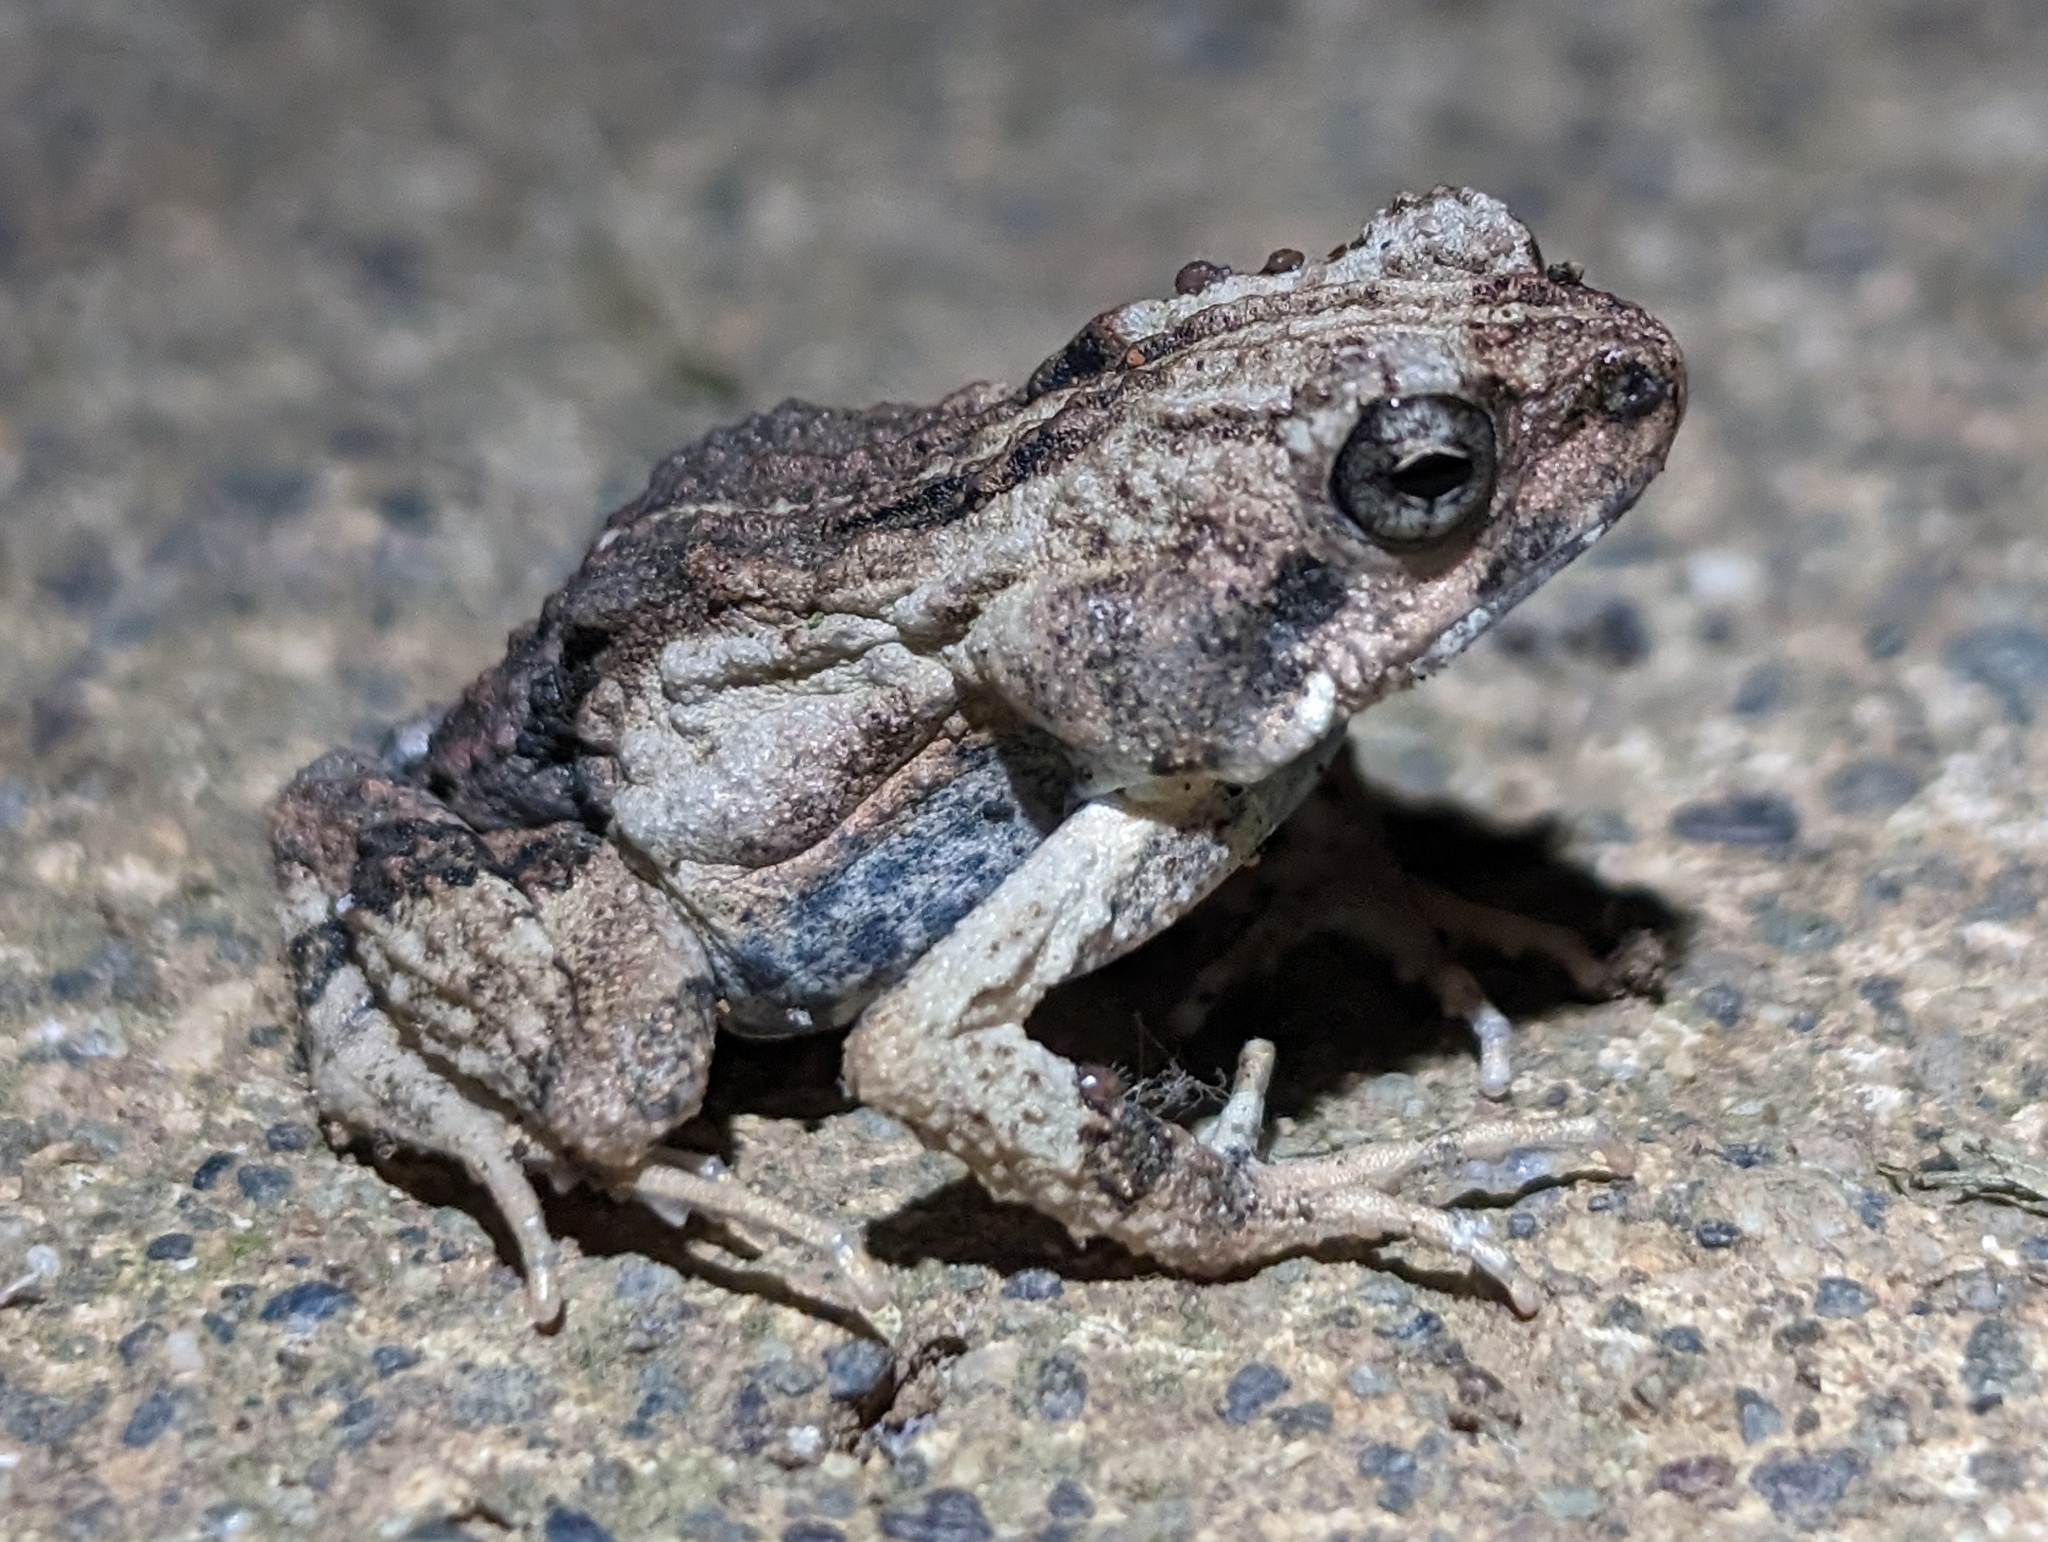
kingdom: Animalia
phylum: Chordata
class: Amphibia
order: Anura
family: Leptodactylidae
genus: Engystomops
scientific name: Engystomops pustulosus
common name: Tungara frog
